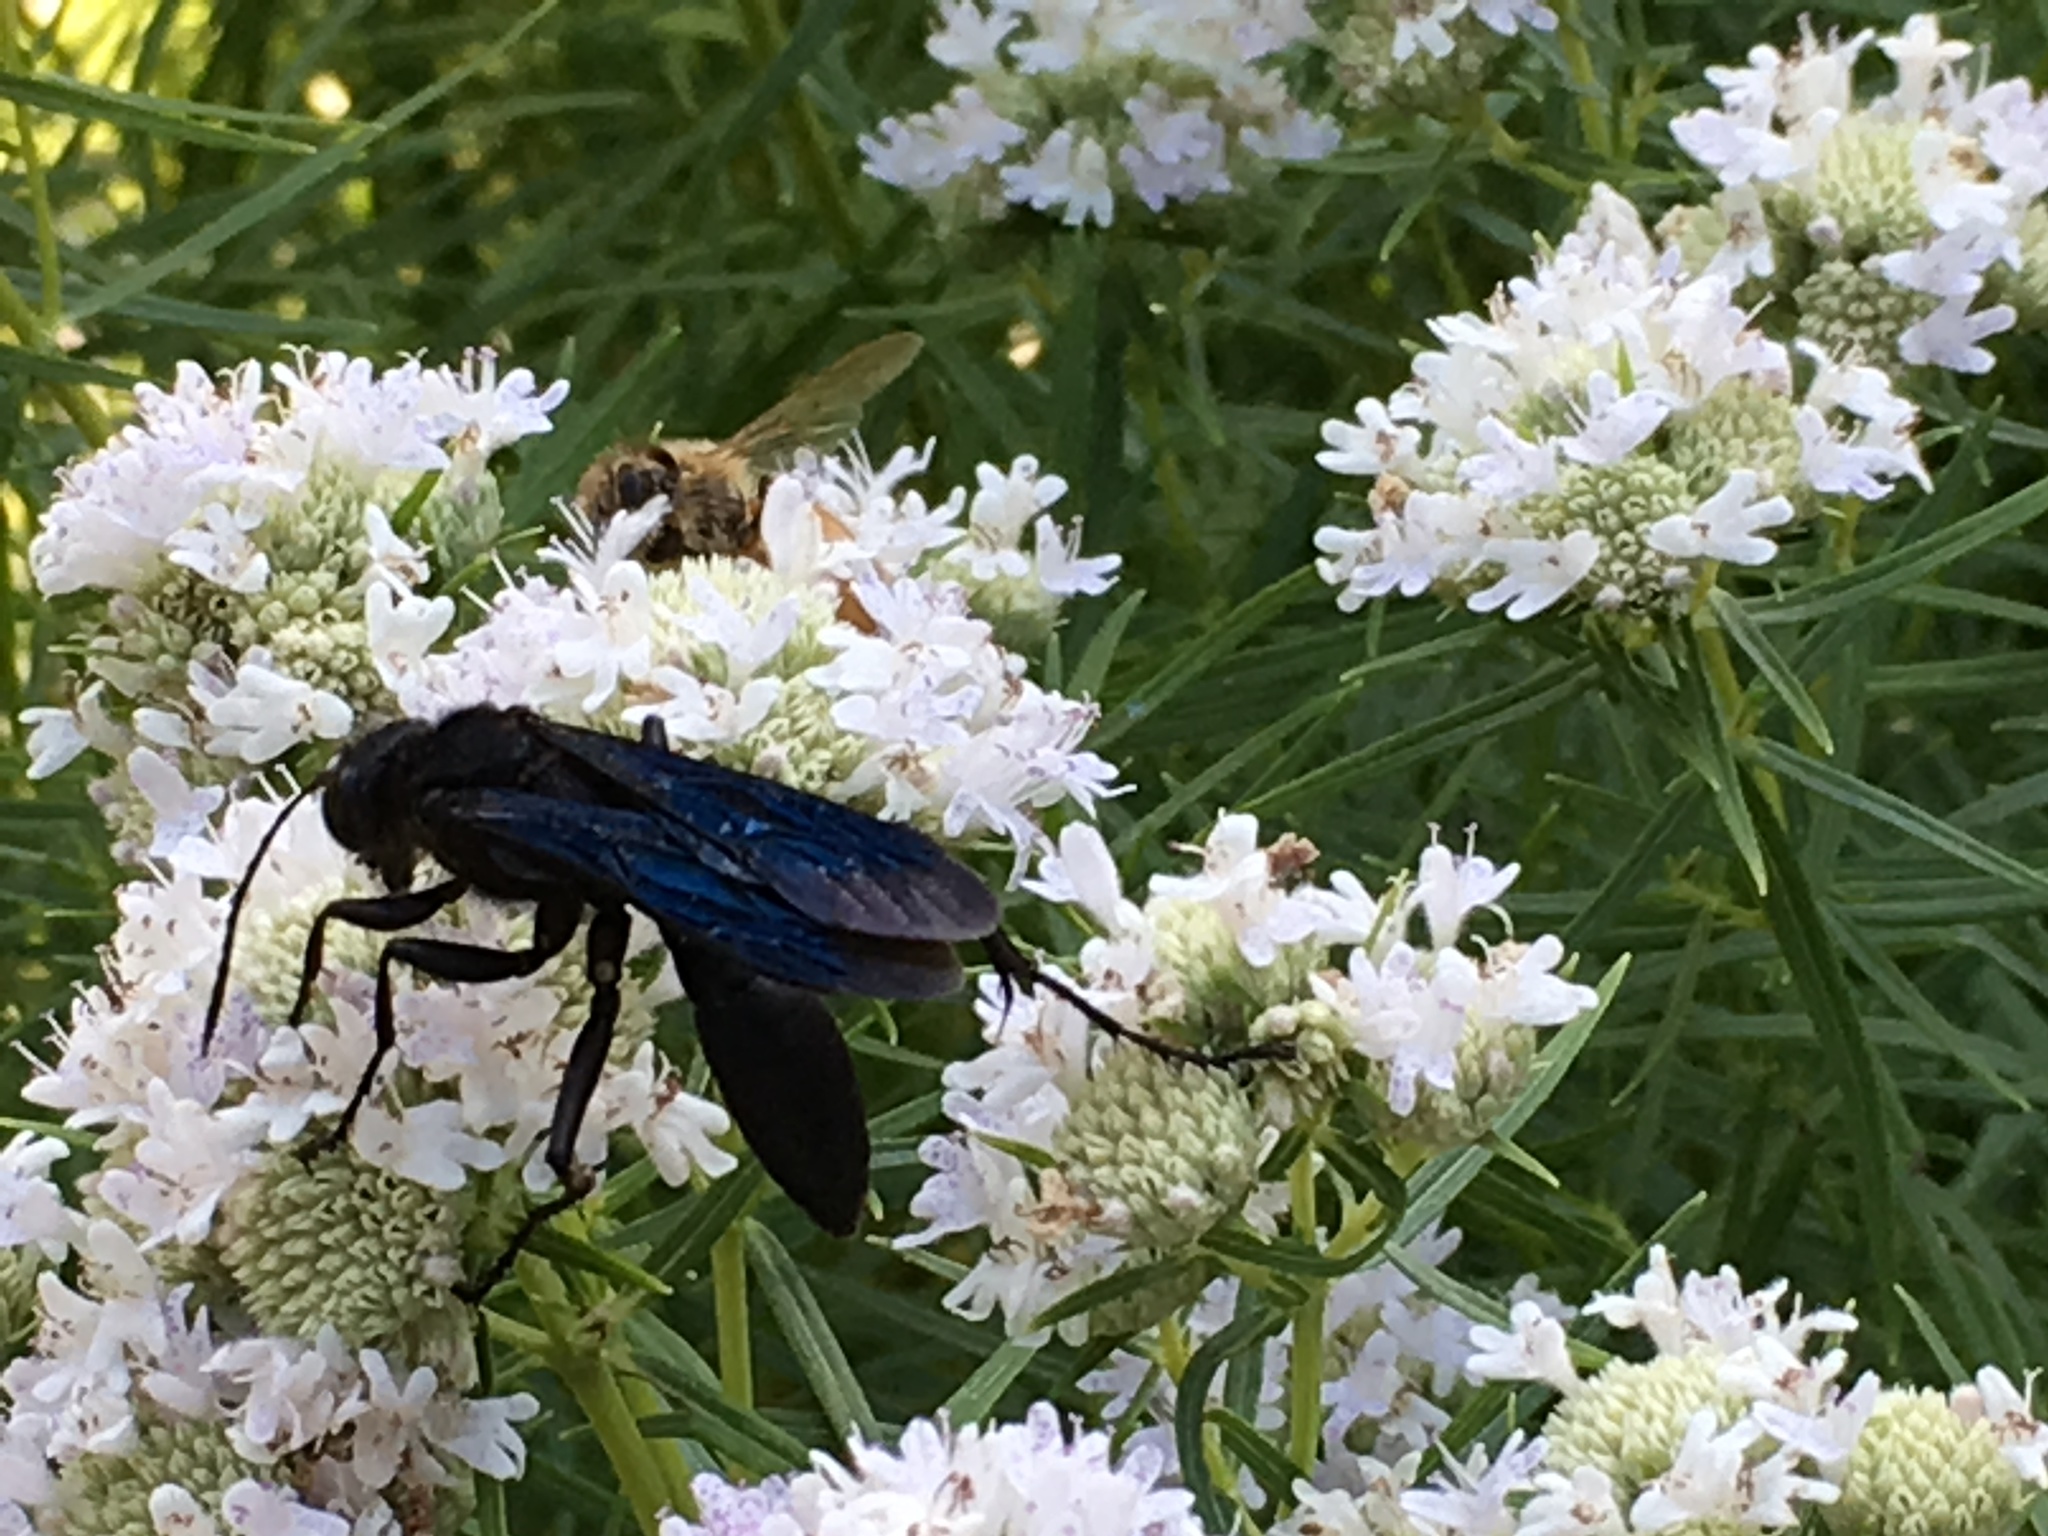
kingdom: Animalia
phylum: Arthropoda
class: Insecta
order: Hymenoptera
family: Sphecidae
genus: Sphex
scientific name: Sphex pensylvanicus
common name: Great black digger wasp
